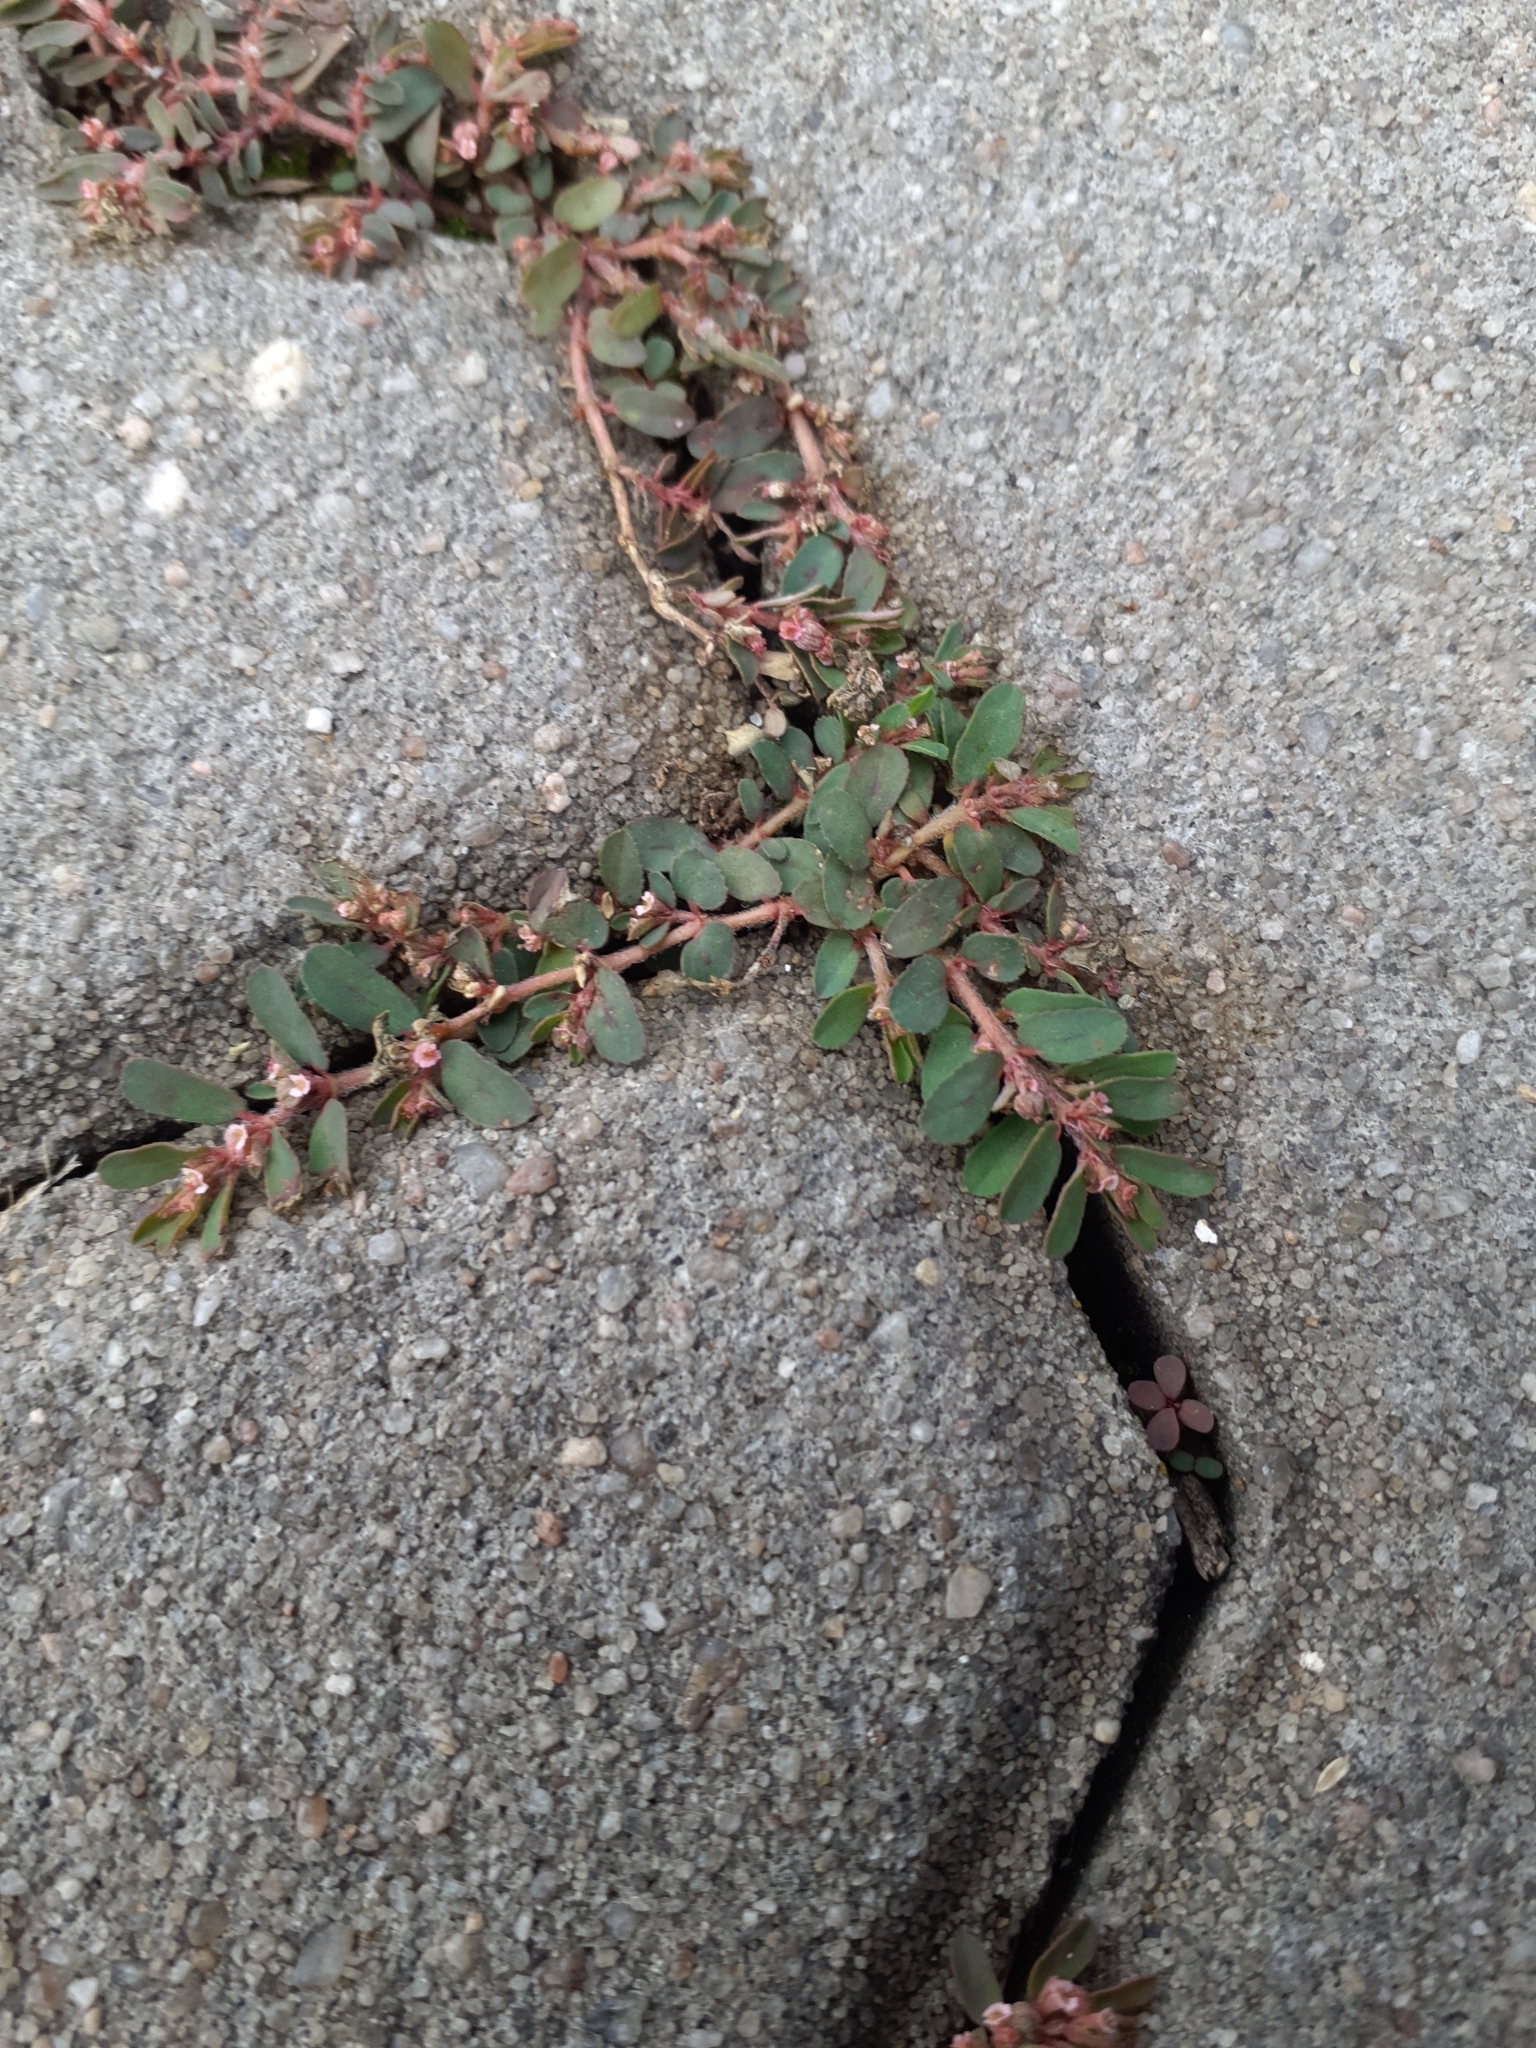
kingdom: Plantae
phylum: Tracheophyta
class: Magnoliopsida
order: Malpighiales
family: Euphorbiaceae
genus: Euphorbia
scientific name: Euphorbia maculata
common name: Spotted spurge
